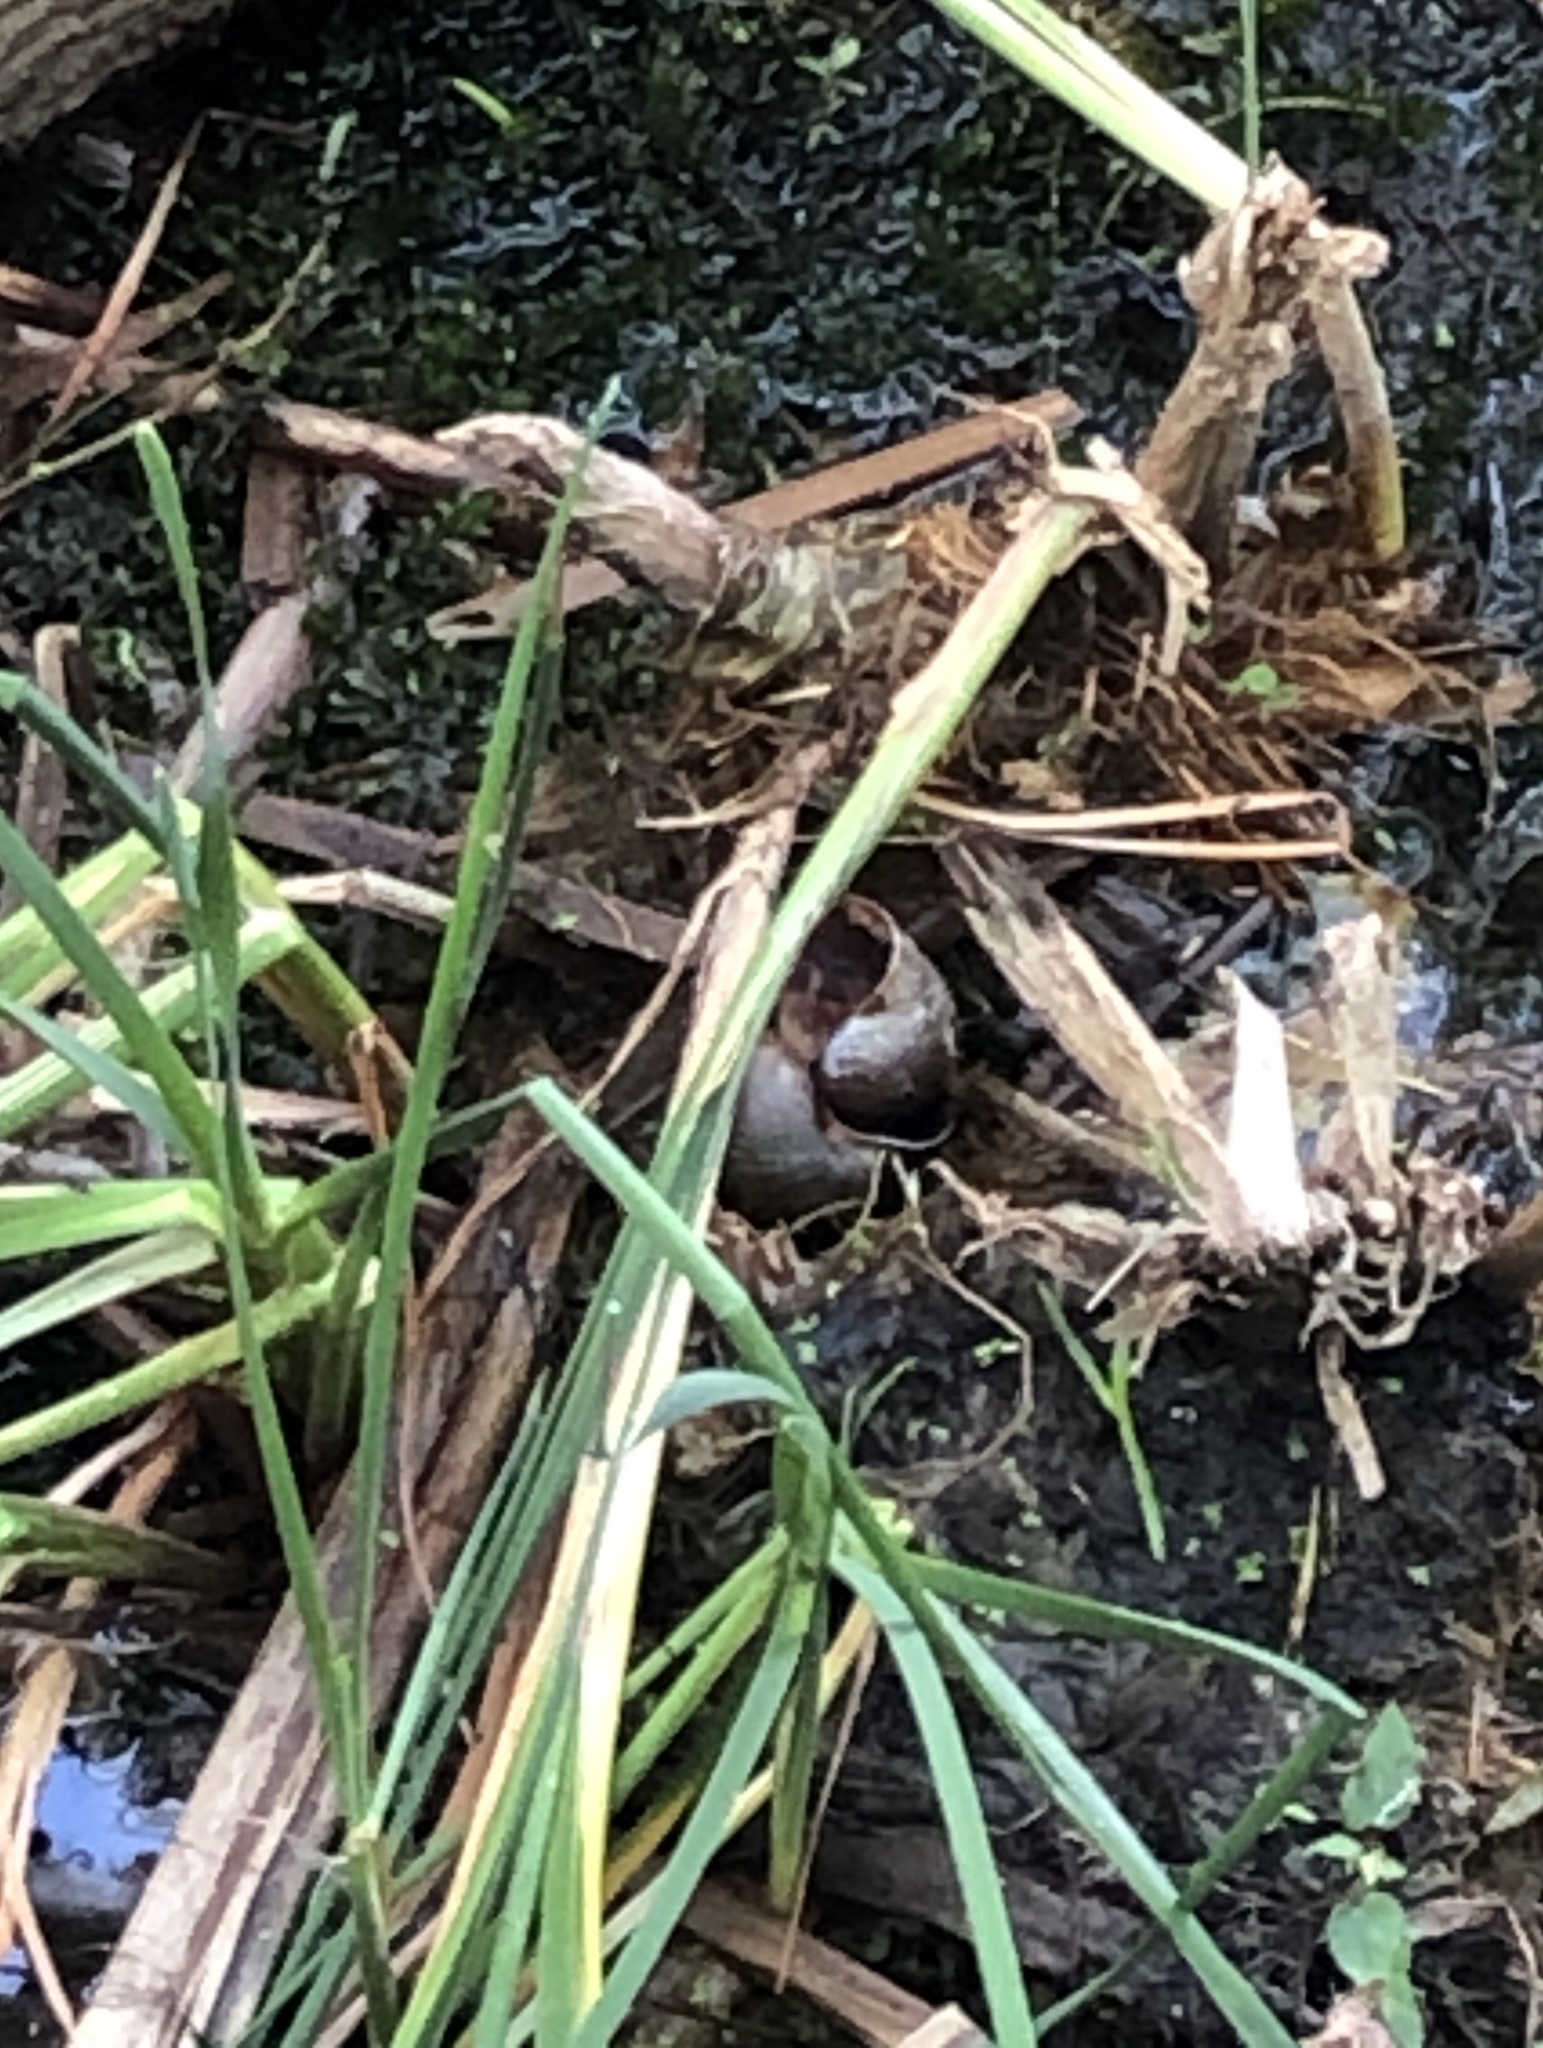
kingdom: Animalia
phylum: Mollusca
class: Gastropoda
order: Architaenioglossa
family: Ampullariidae
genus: Pomacea
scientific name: Pomacea maculata
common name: Giant applesnail
